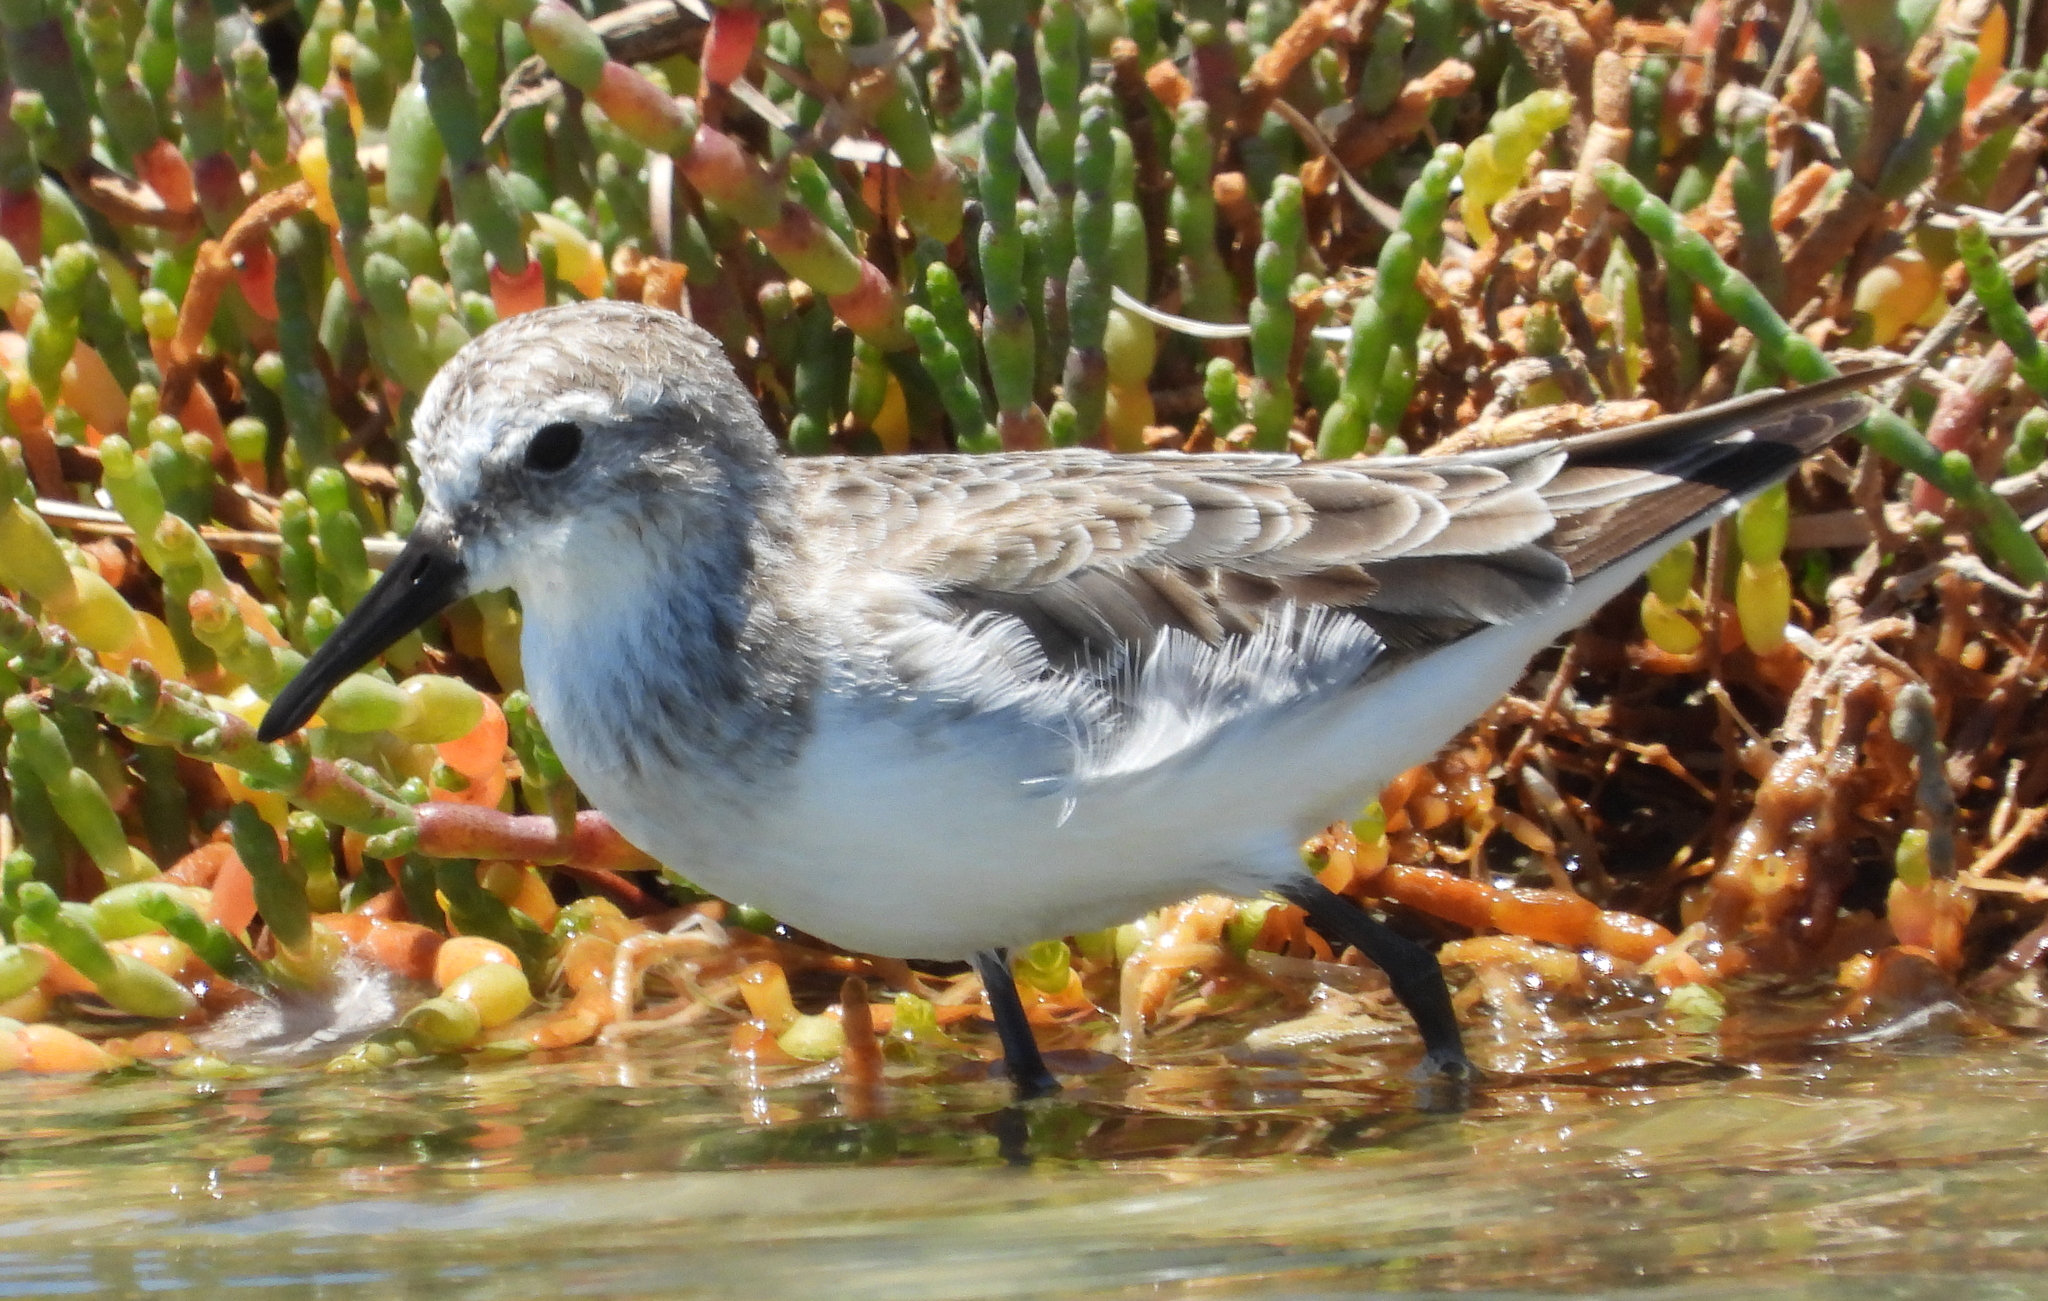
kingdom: Animalia
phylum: Chordata
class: Aves
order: Charadriiformes
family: Scolopacidae
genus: Calidris
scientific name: Calidris minuta
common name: Little stint
